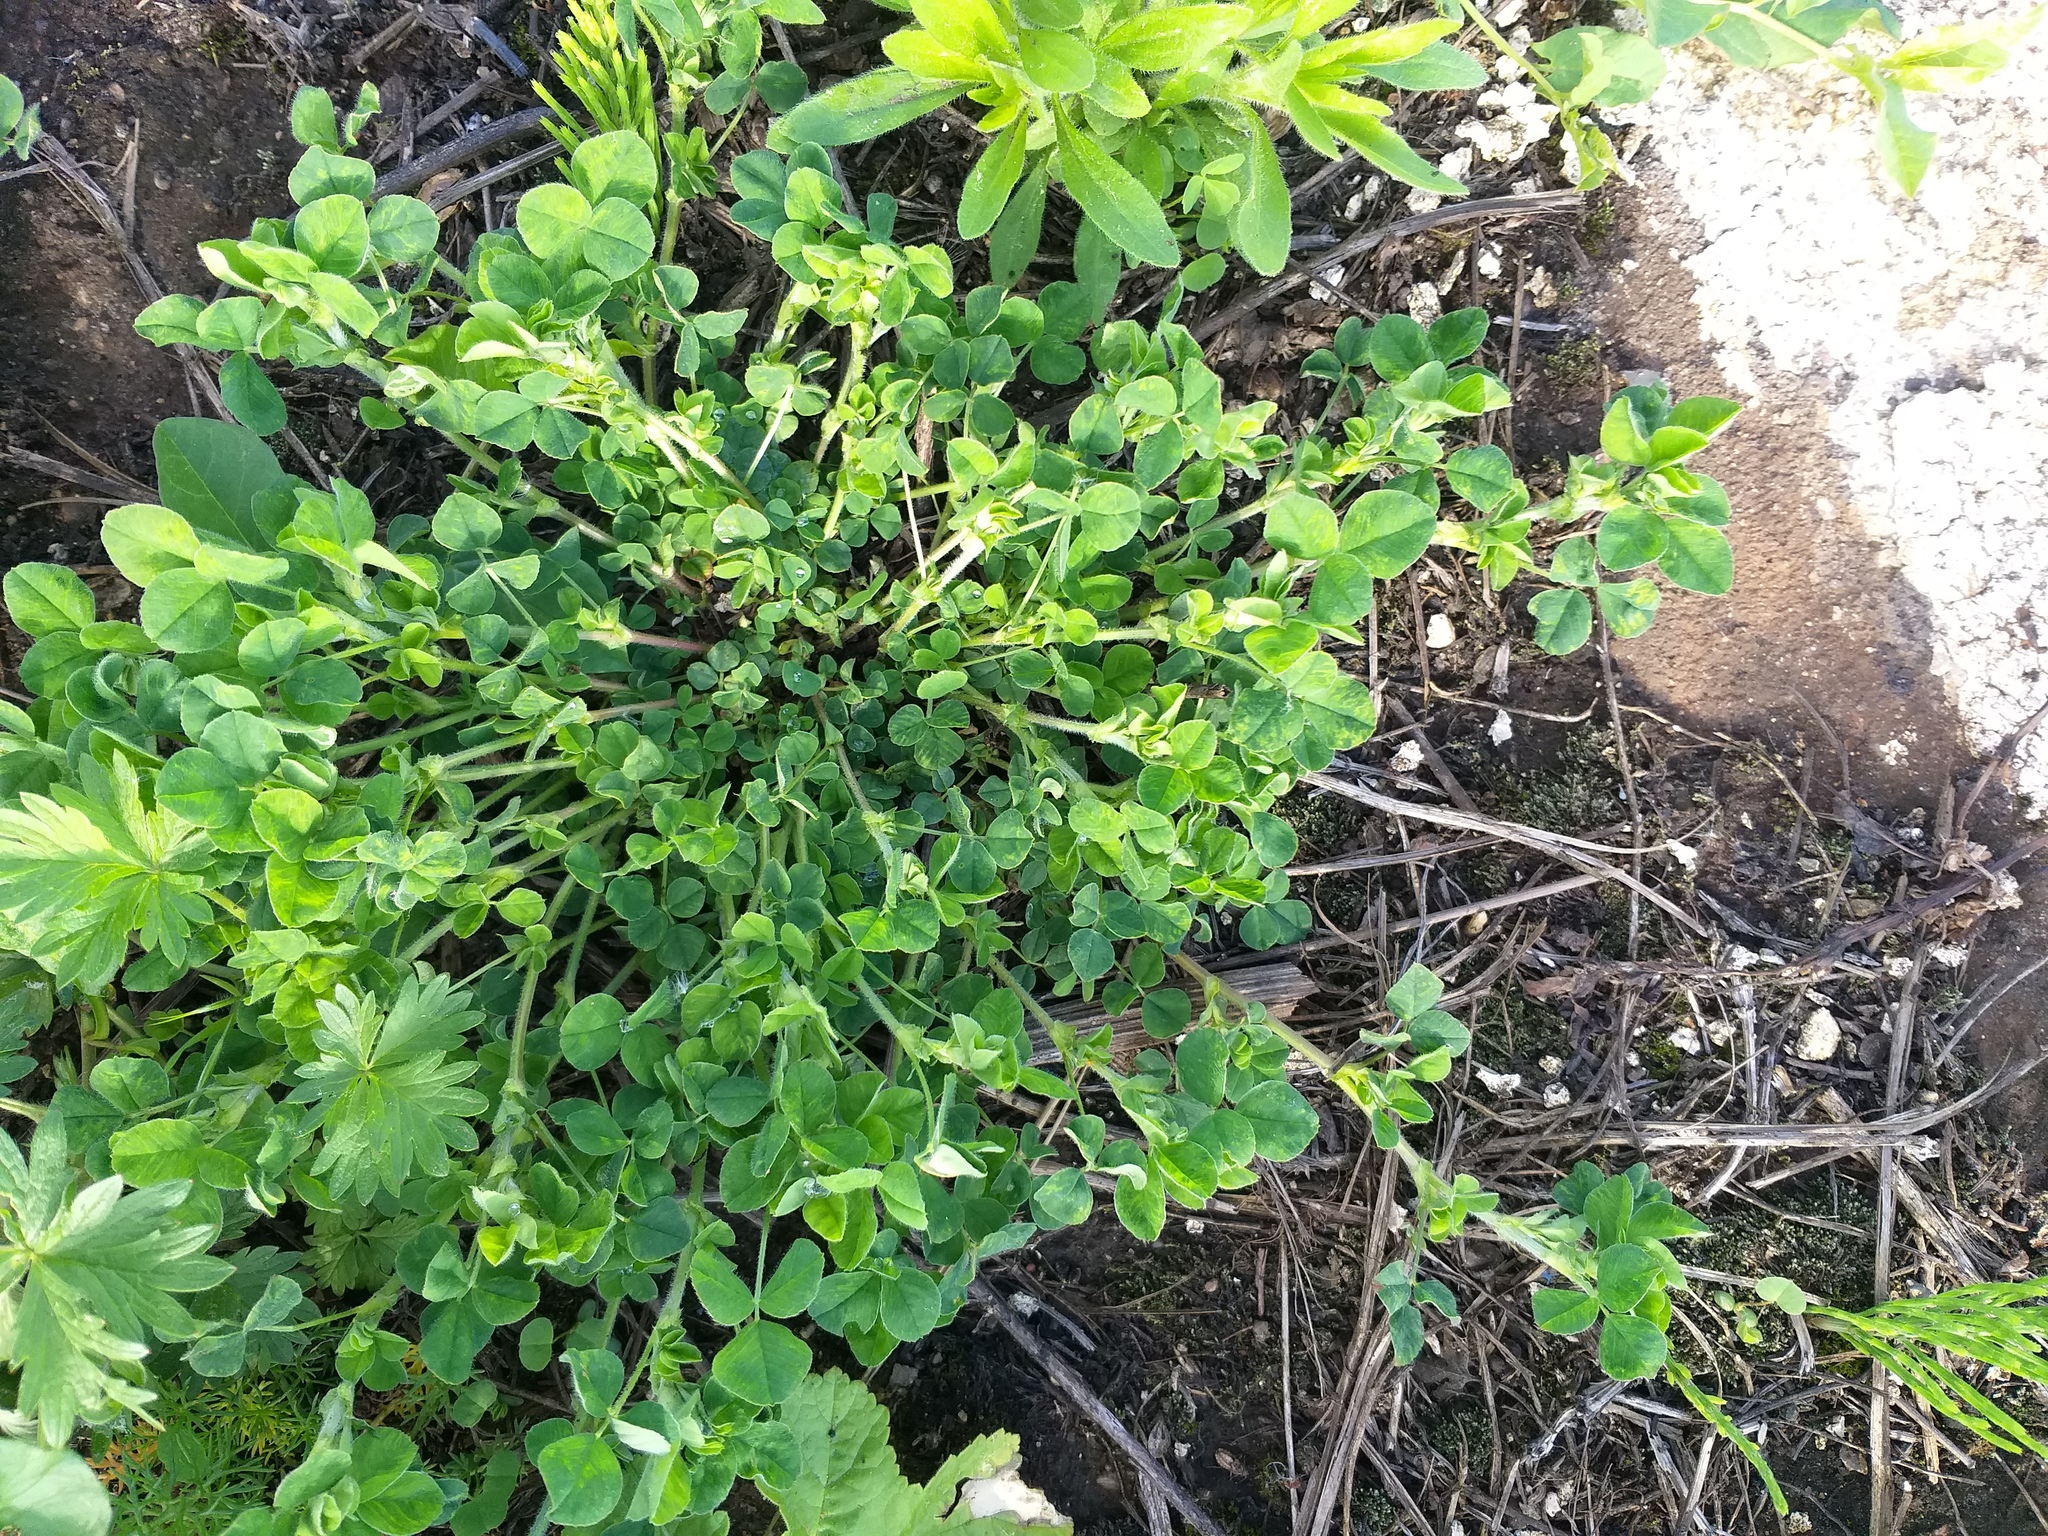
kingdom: Plantae
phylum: Tracheophyta
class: Magnoliopsida
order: Fabales
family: Fabaceae
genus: Medicago
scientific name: Medicago lupulina
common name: Black medick
